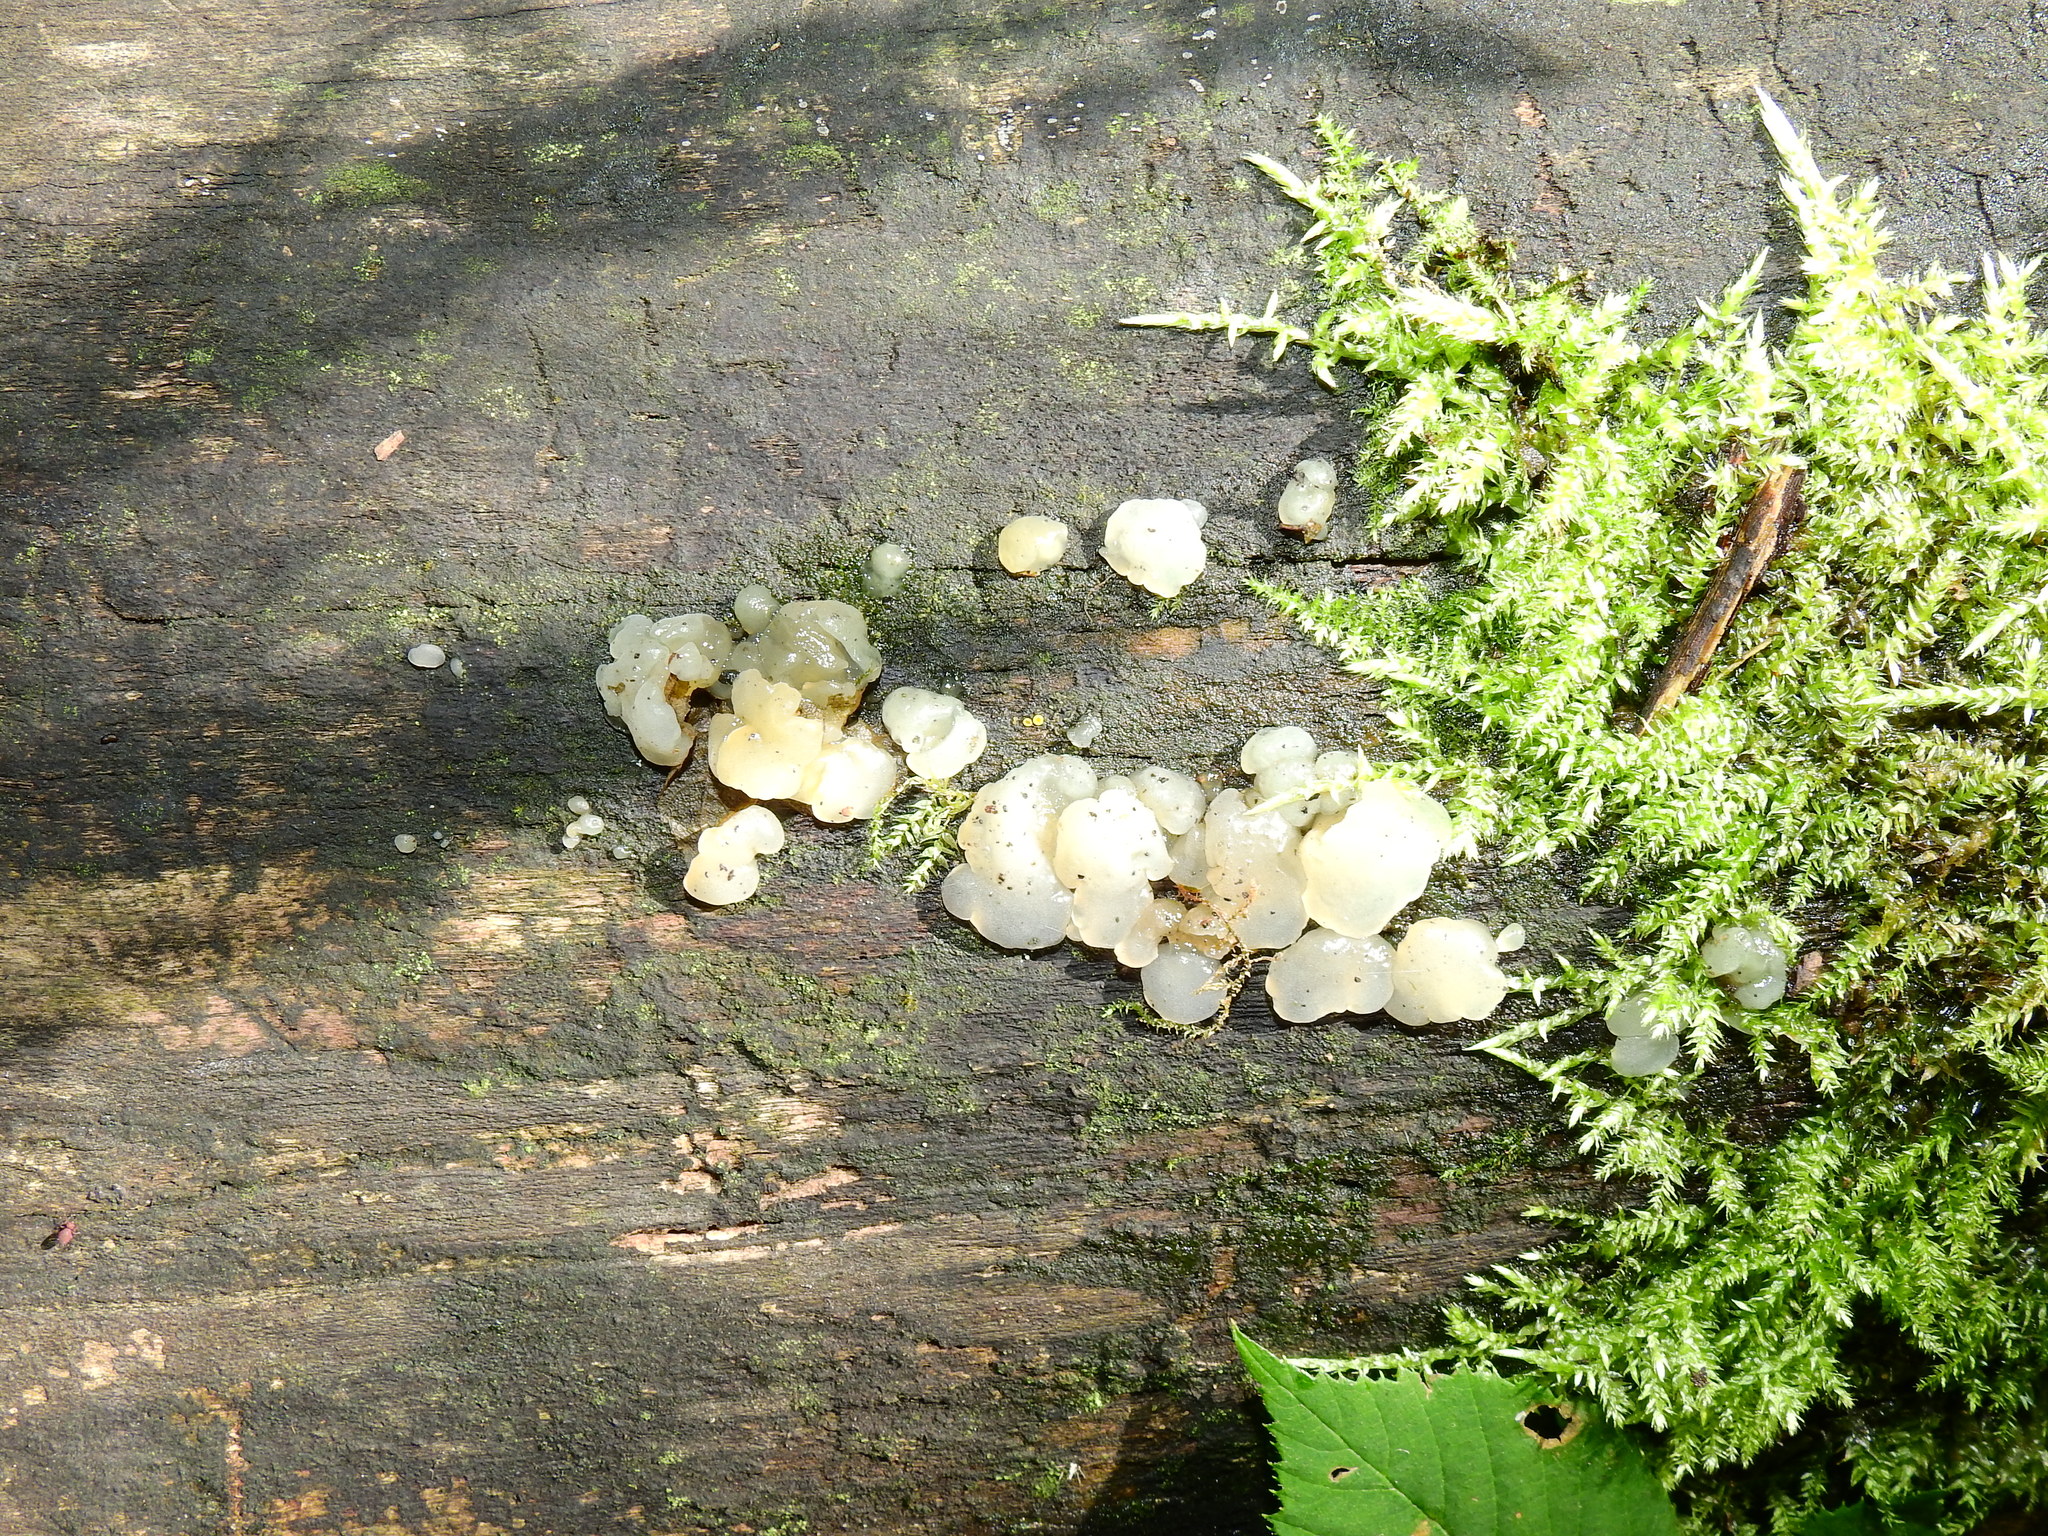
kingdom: Fungi
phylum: Basidiomycota
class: Agaricomycetes
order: Auriculariales
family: Hyaloriaceae
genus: Myxarium
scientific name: Myxarium nucleatum
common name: Crystal brain fungus
